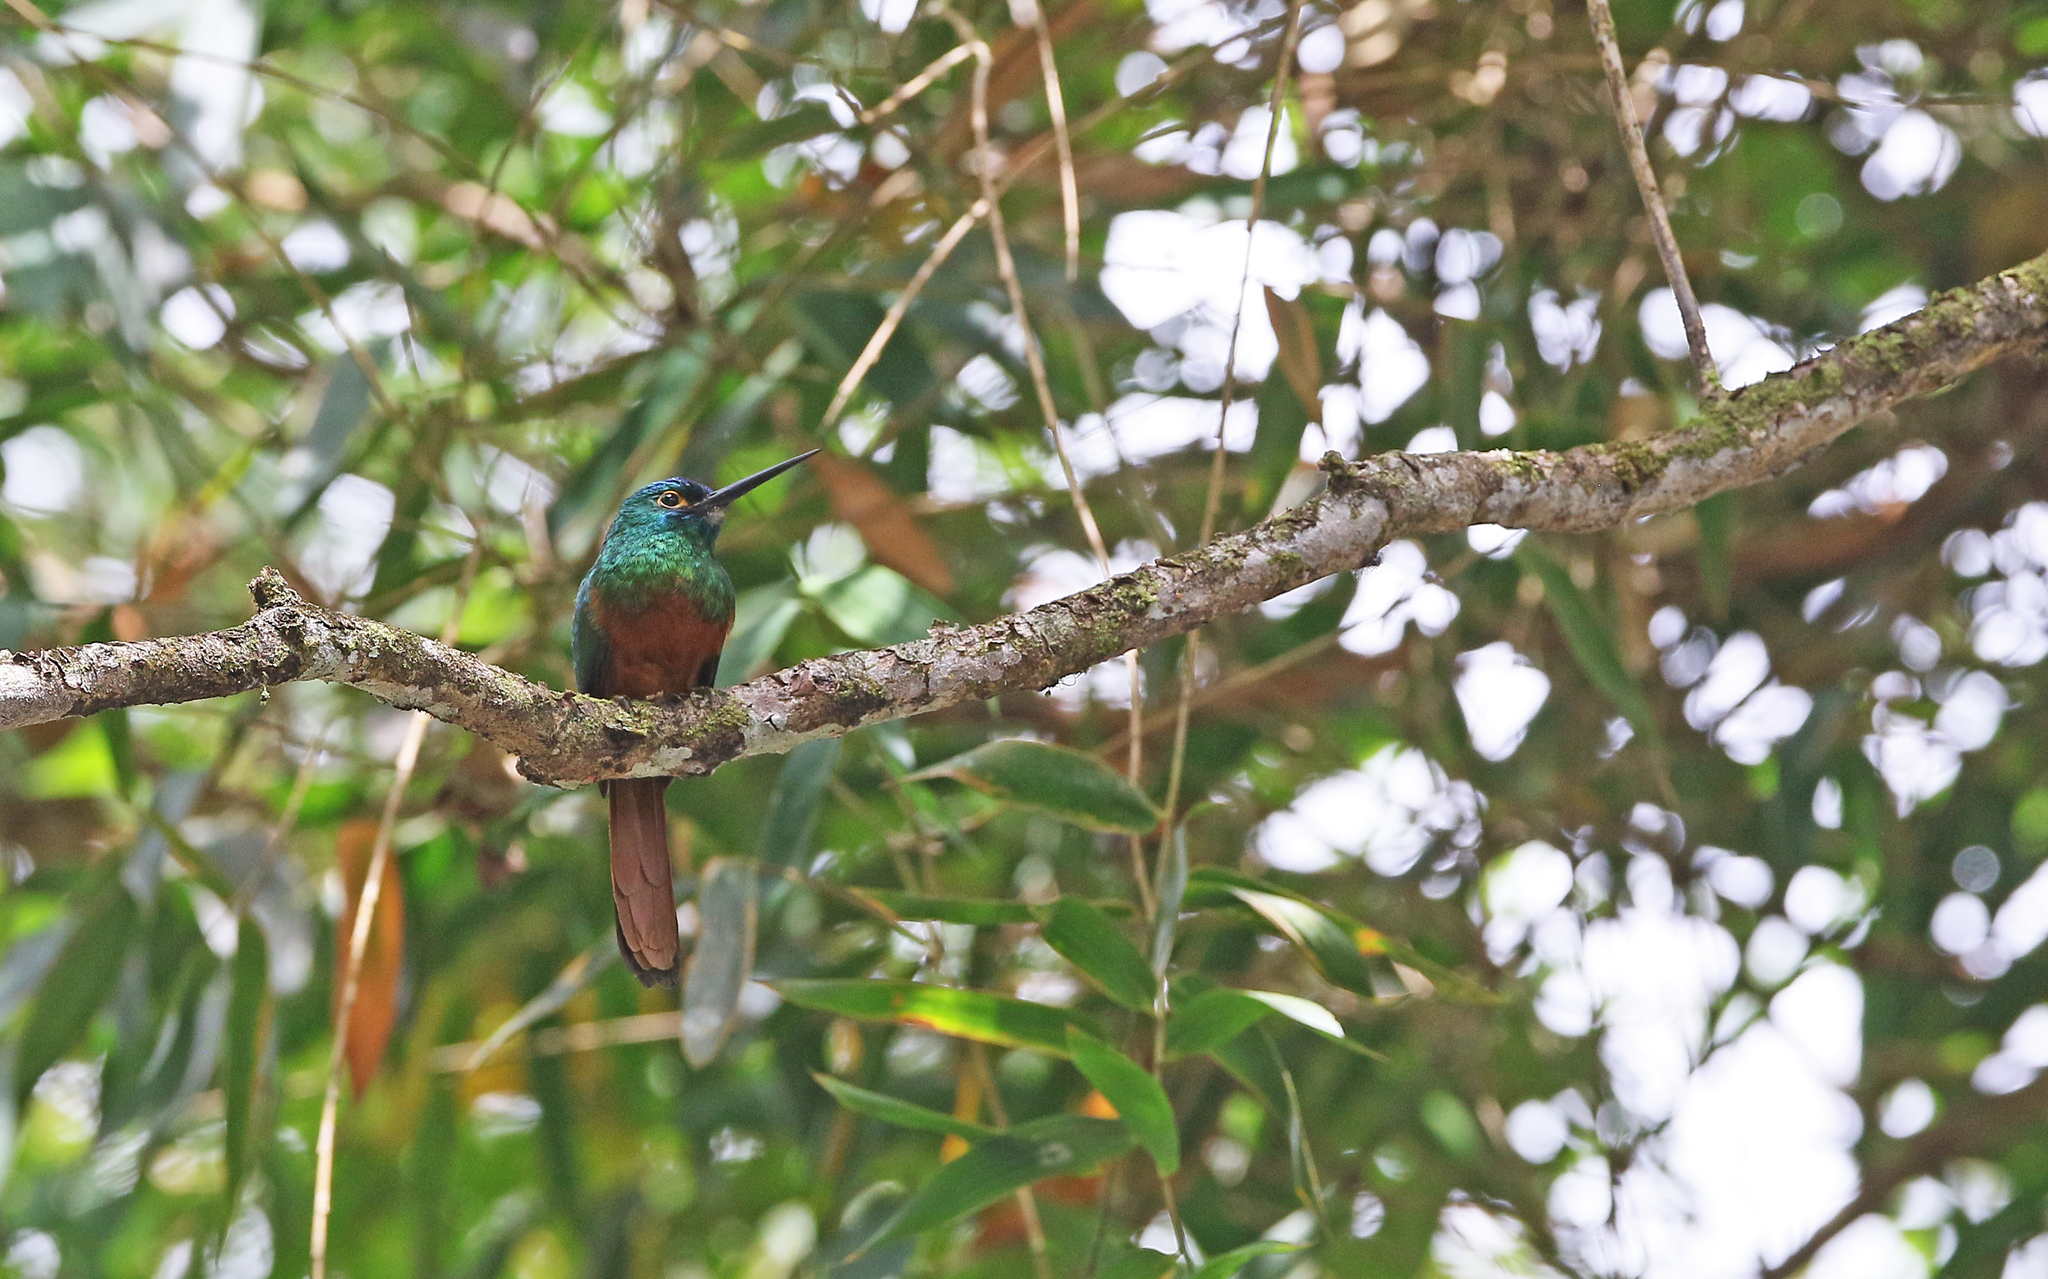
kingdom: Animalia
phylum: Chordata
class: Aves
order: Piciformes
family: Galbulidae
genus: Galbula
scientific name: Galbula pastazae
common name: Coppery-chested jacamar
